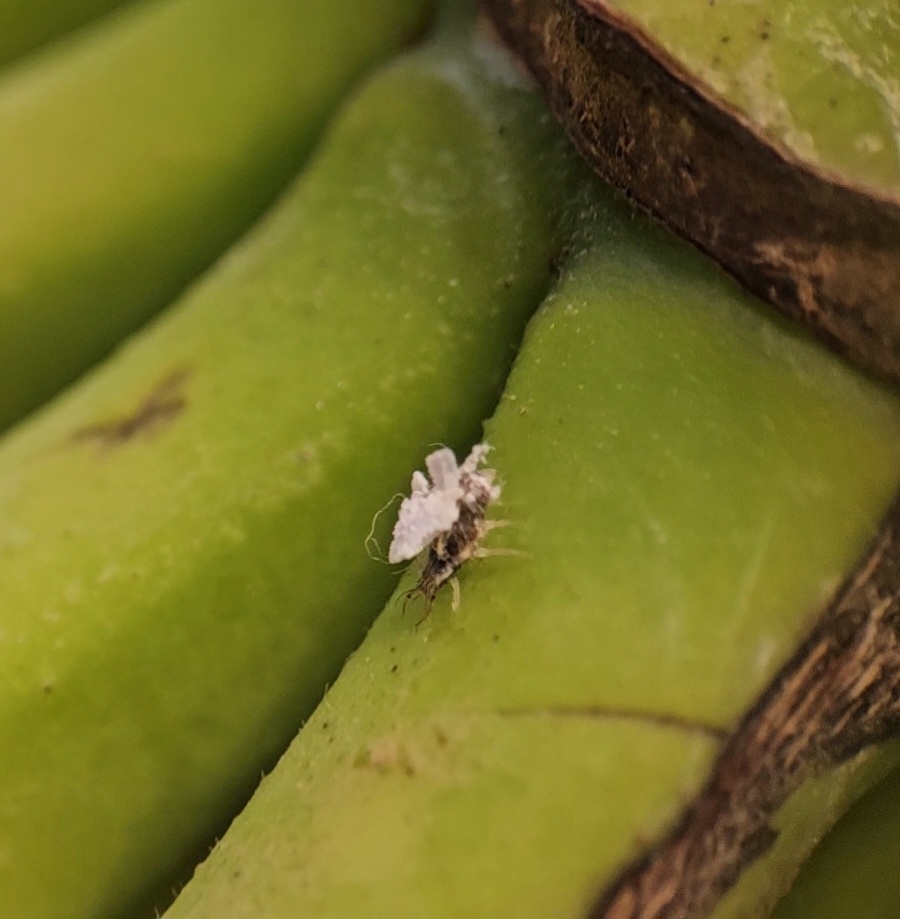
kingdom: Animalia
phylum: Arthropoda
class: Insecta
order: Neuroptera
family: Chrysopidae
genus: Mallada
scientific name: Mallada basalis
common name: Green lacewing
